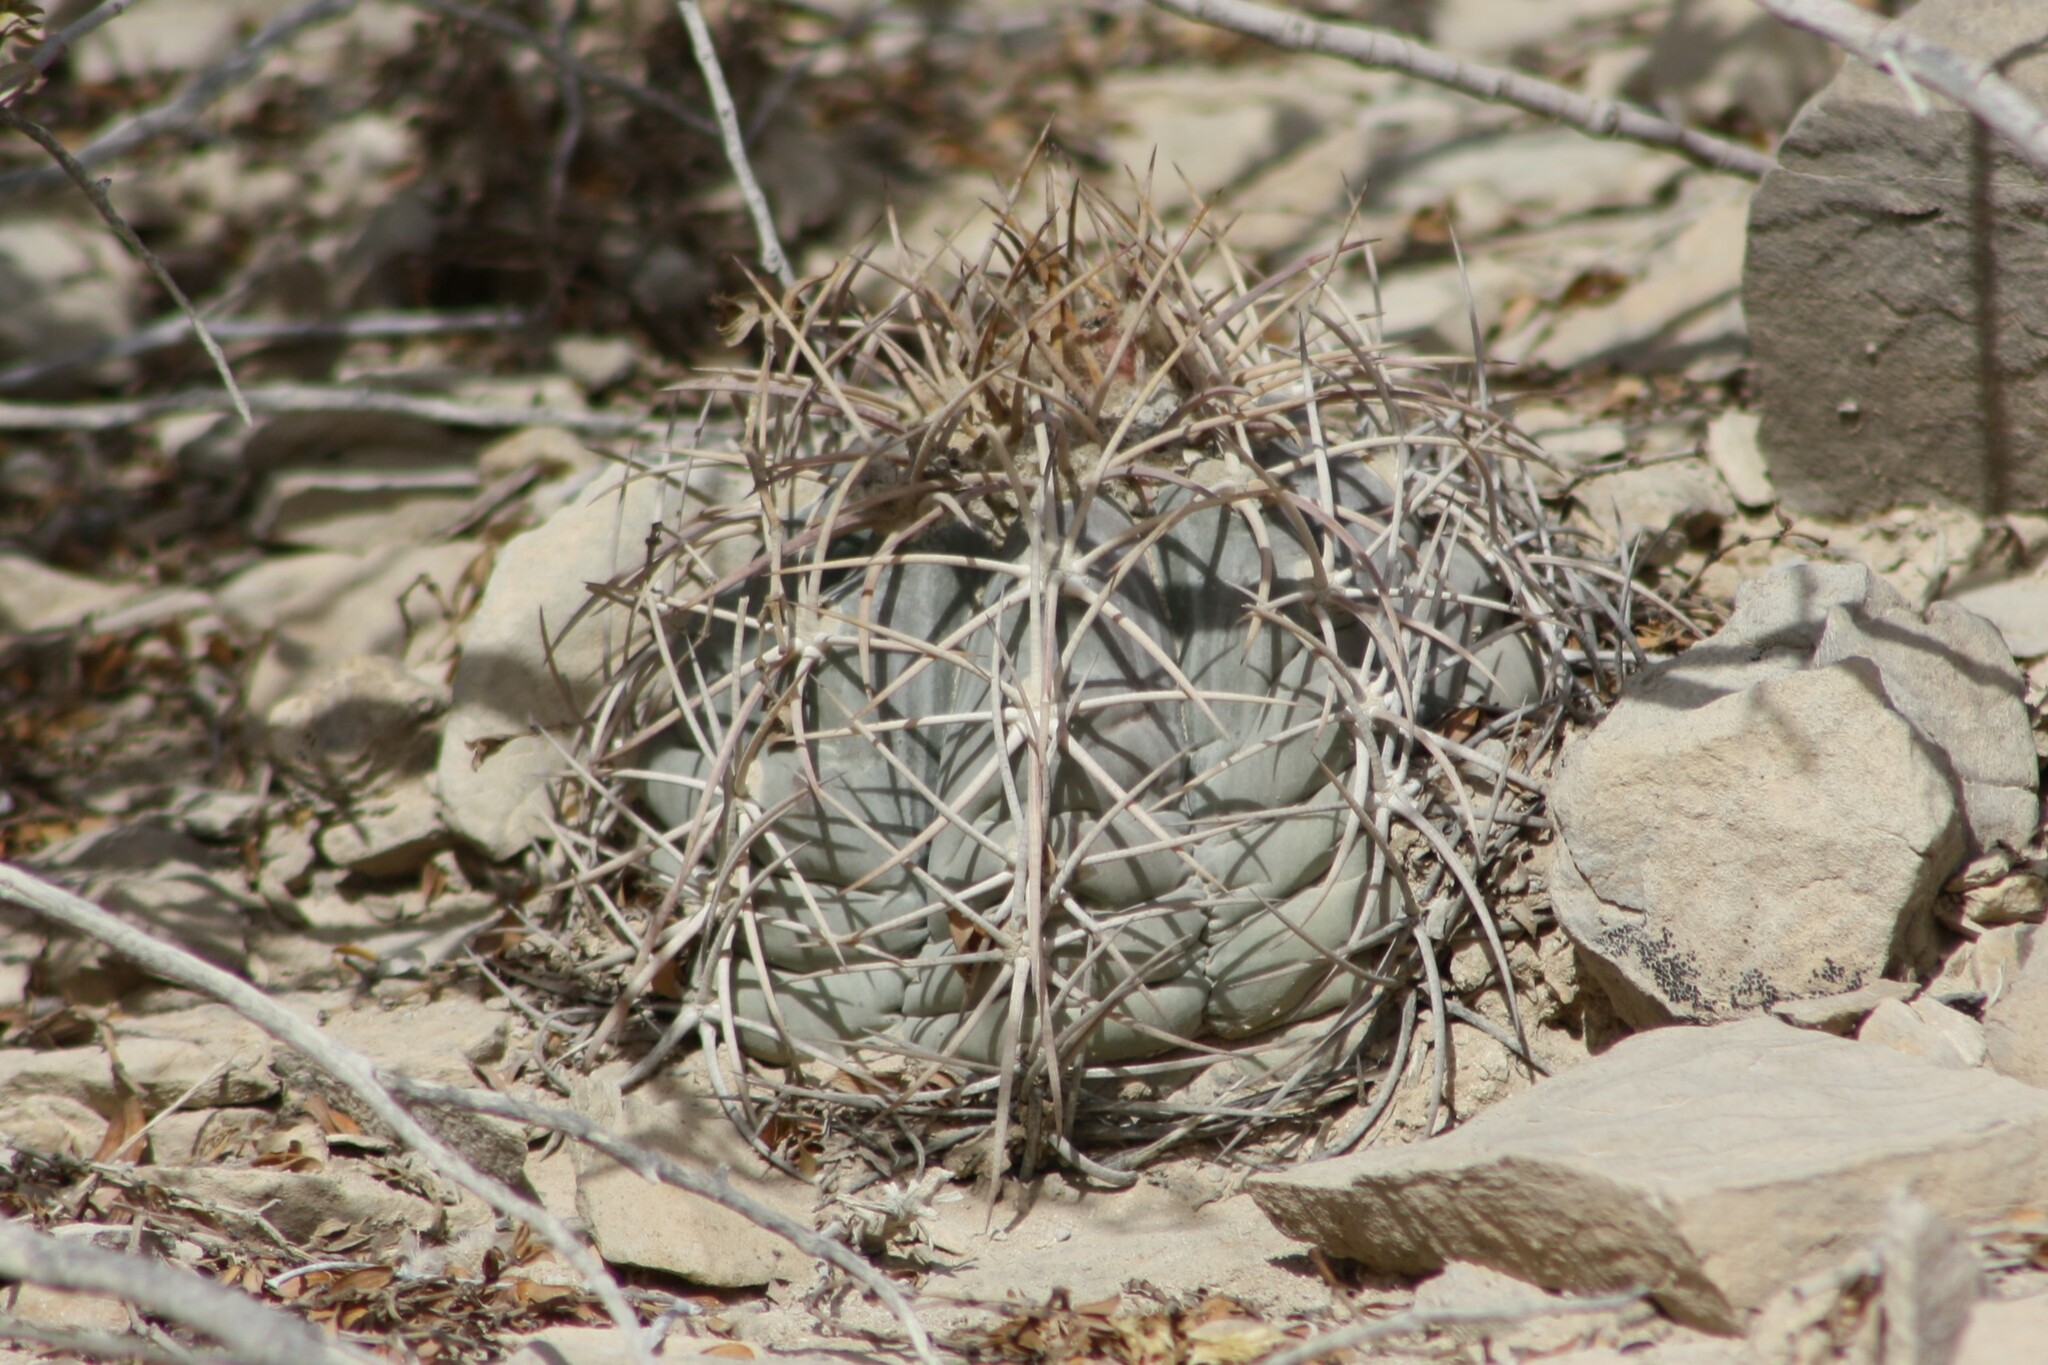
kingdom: Plantae
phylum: Tracheophyta
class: Magnoliopsida
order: Caryophyllales
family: Cactaceae
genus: Echinocactus
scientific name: Echinocactus horizonthalonius
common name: Devilshead
